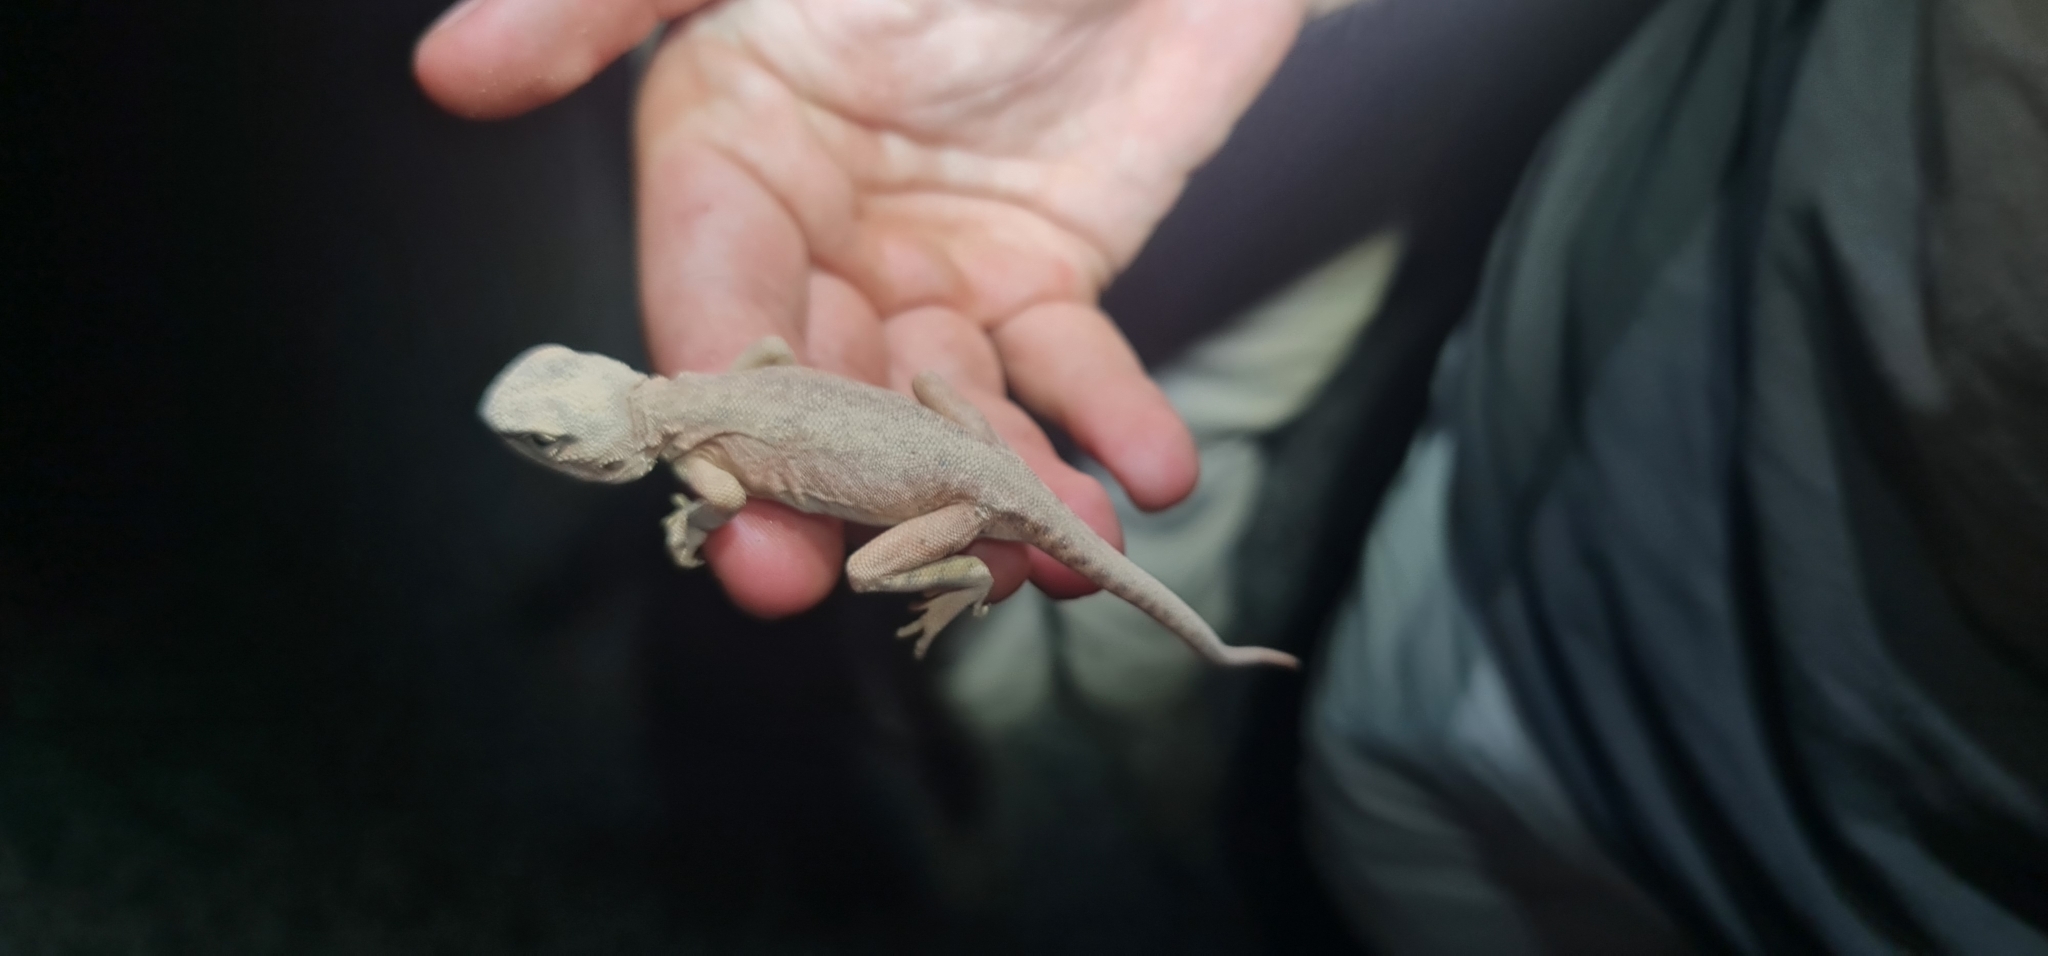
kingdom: Animalia
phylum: Chordata
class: Squamata
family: Agamidae
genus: Ctenophorus
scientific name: Ctenophorus gibba
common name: Bulldust ground-dragon
